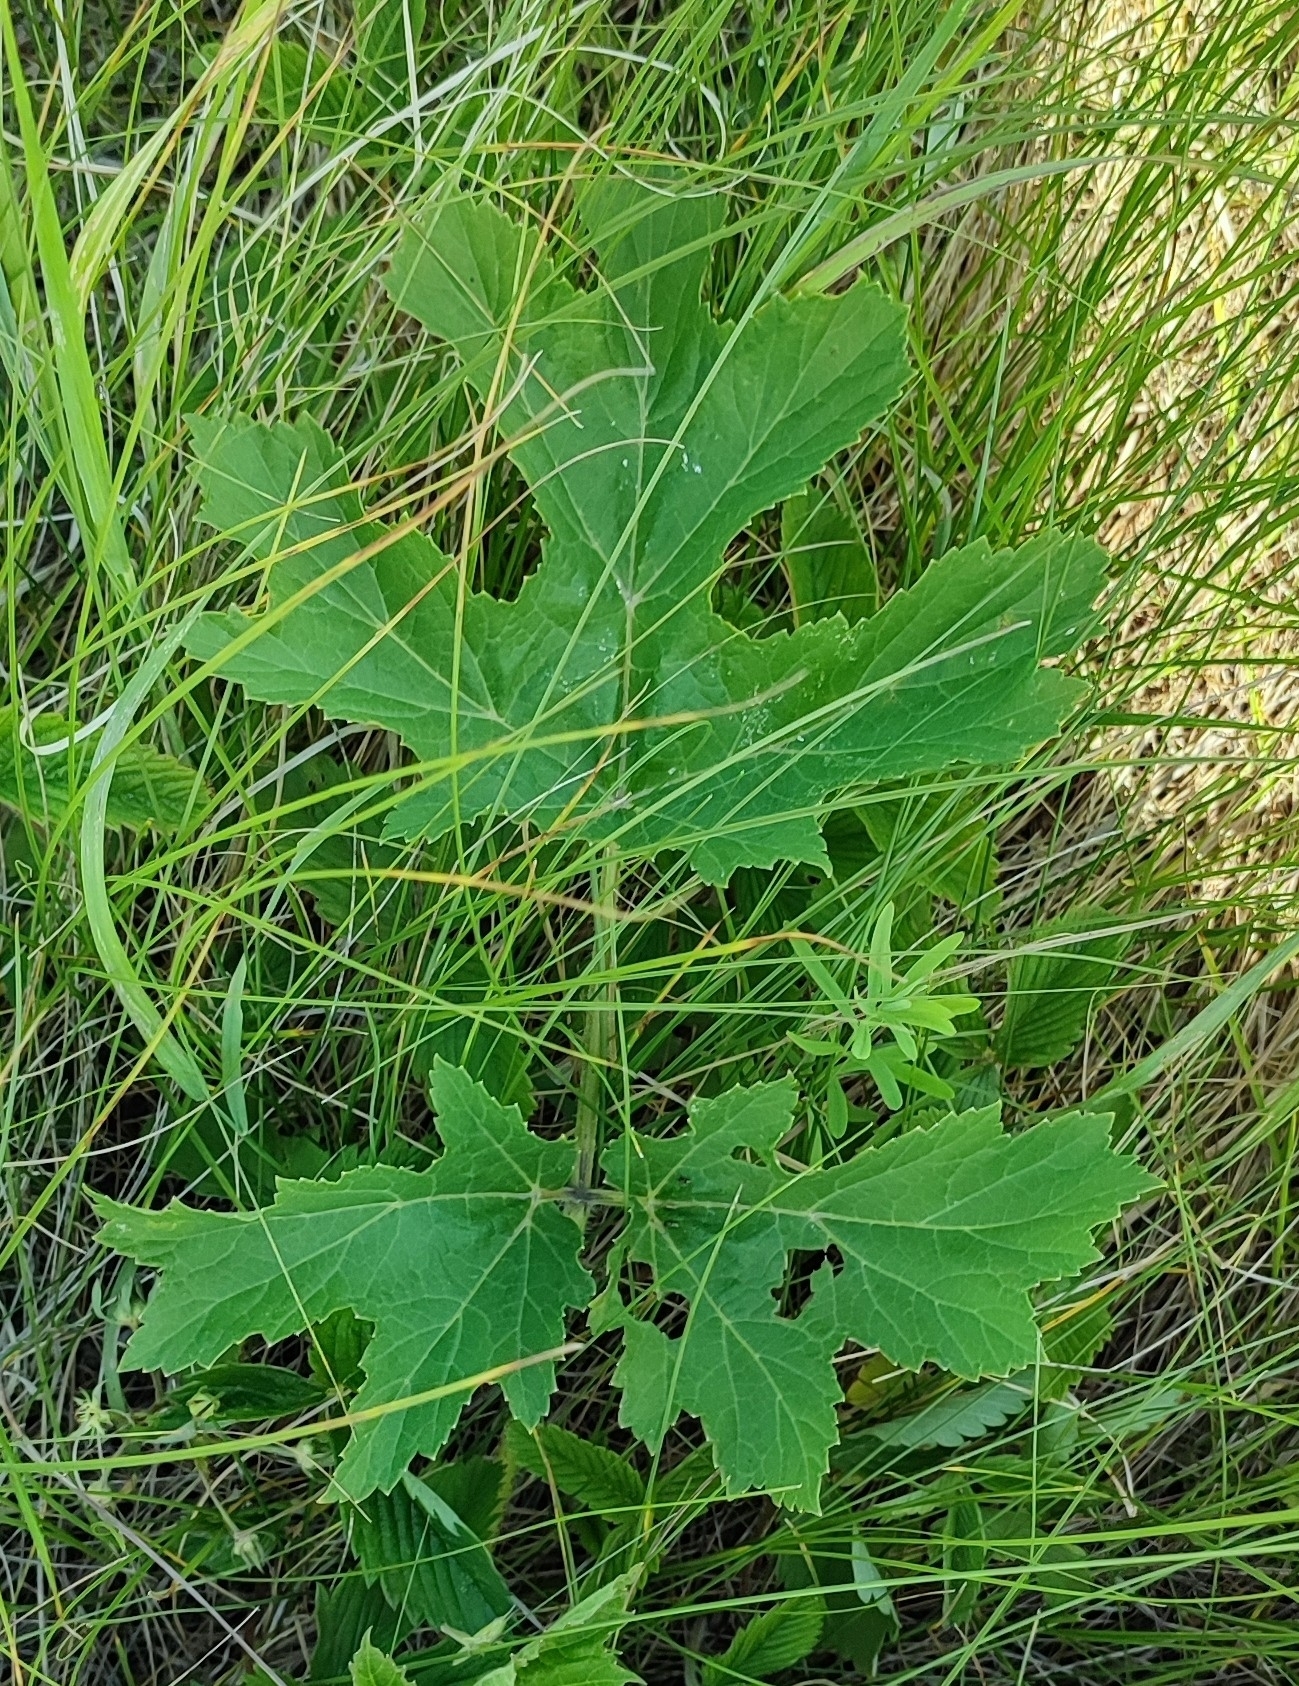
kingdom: Plantae
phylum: Tracheophyta
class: Magnoliopsida
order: Apiales
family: Apiaceae
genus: Heracleum
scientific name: Heracleum sphondylium
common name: Hogweed
